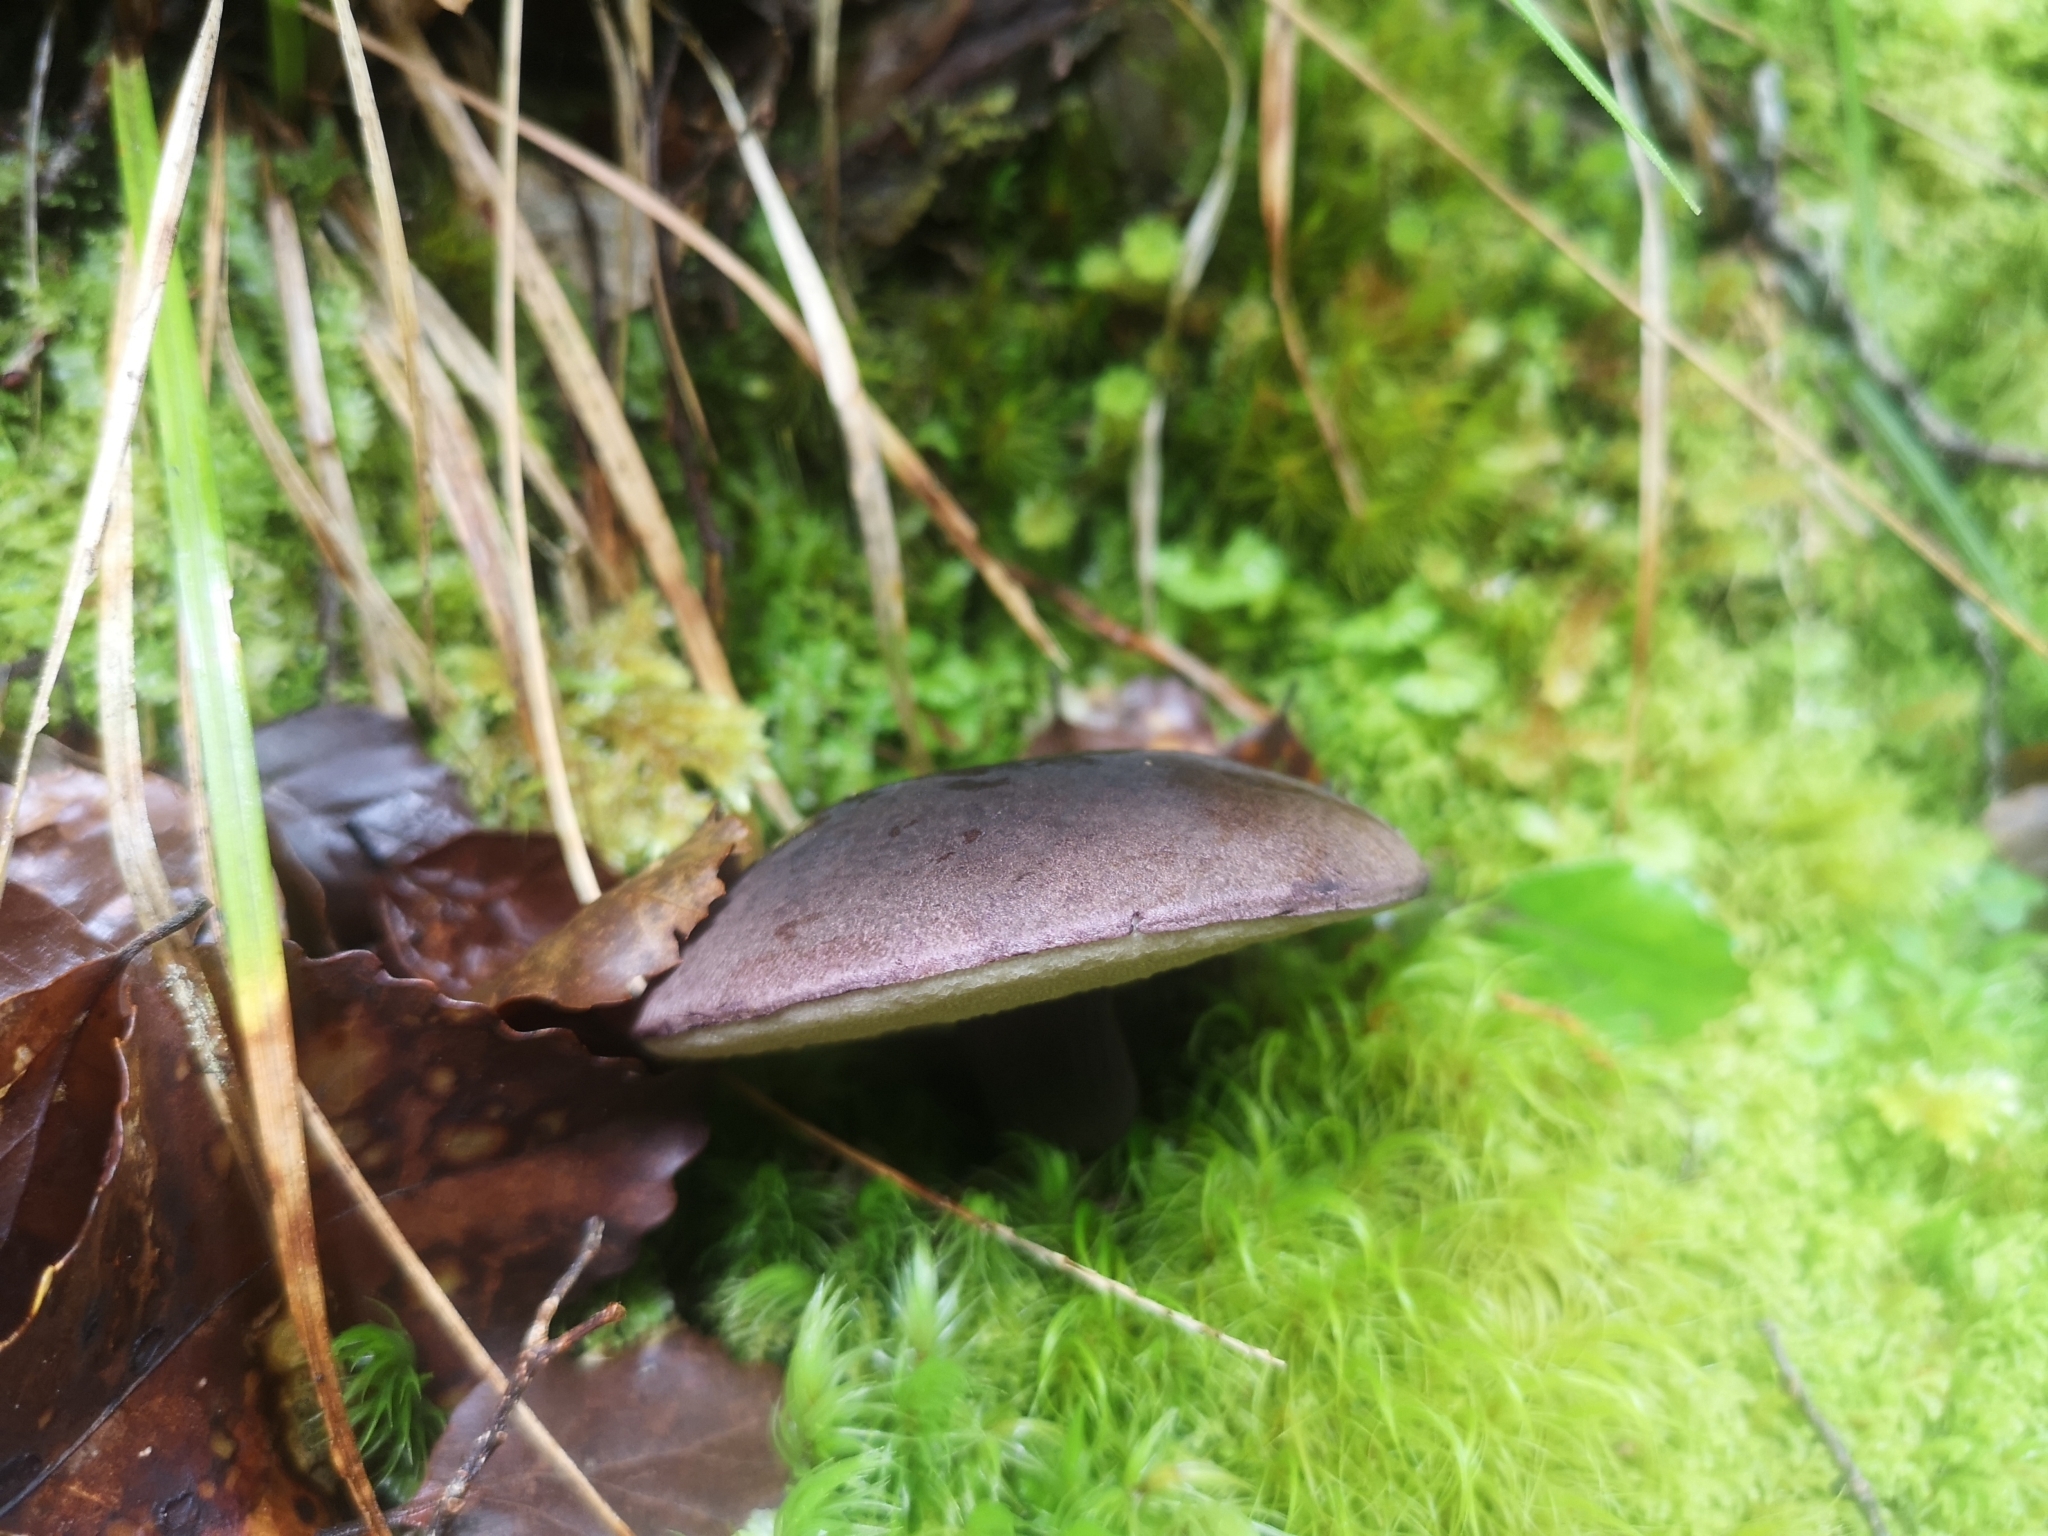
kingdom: Fungi
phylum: Basidiomycota
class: Agaricomycetes
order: Boletales
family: Boletaceae
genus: Porphyrellus
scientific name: Porphyrellus formosus
